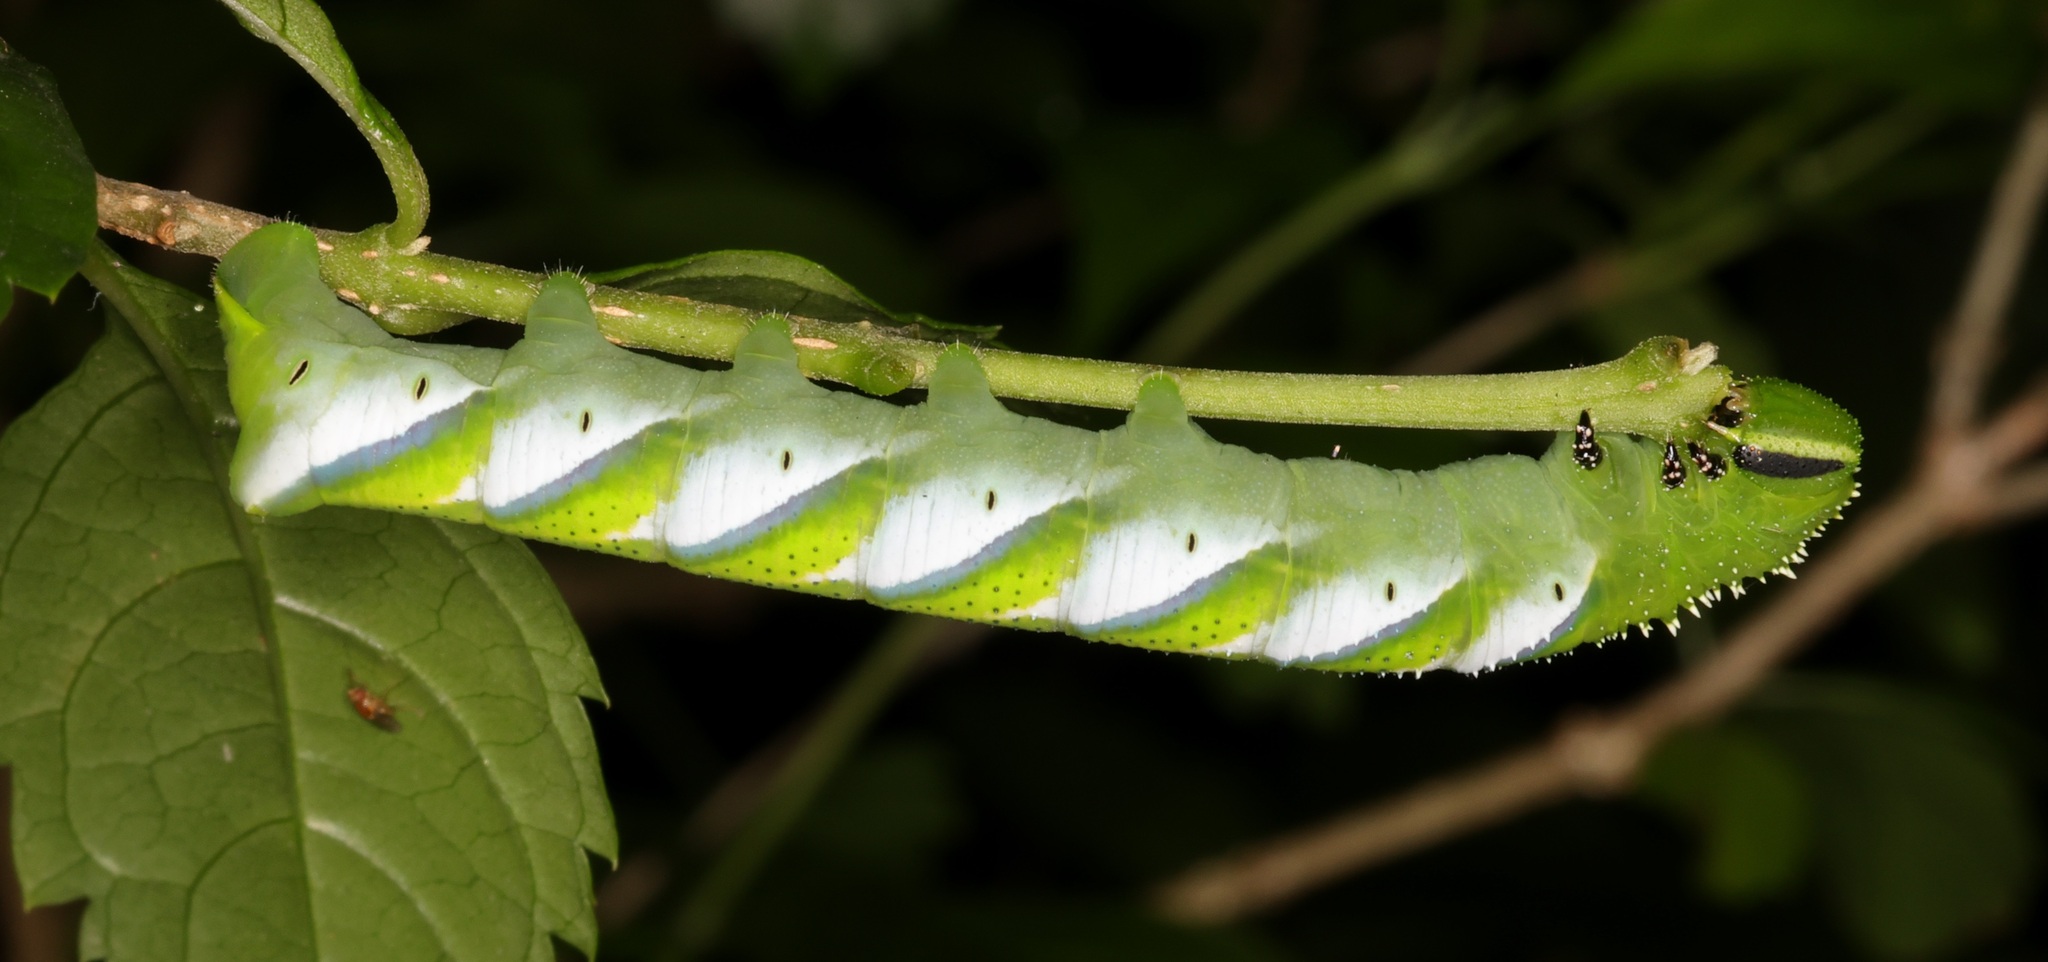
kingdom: Animalia
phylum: Arthropoda
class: Insecta
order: Lepidoptera
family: Sphingidae
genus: Acherontia
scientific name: Acherontia lachesis
